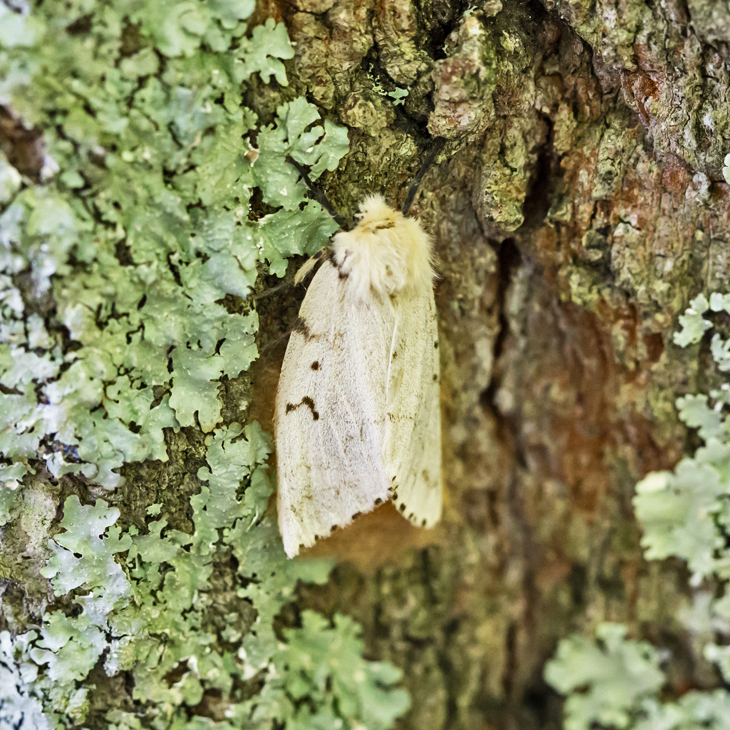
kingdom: Animalia
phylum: Arthropoda
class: Insecta
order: Lepidoptera
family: Erebidae
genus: Lymantria
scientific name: Lymantria dispar
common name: Gypsy moth
